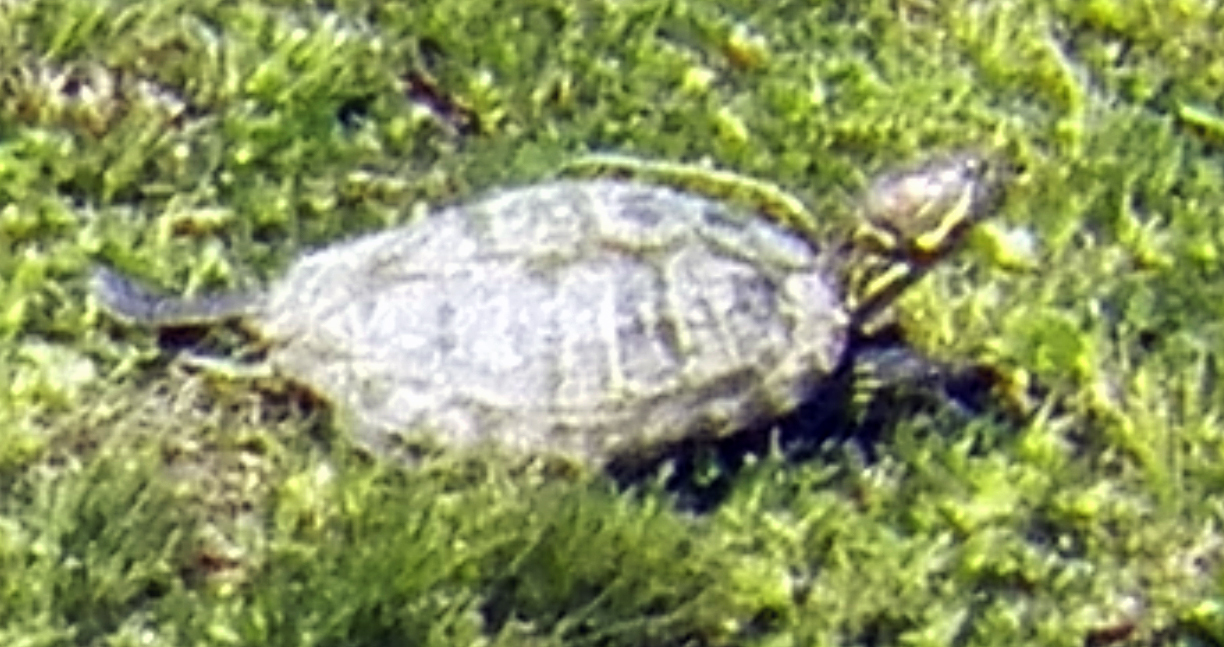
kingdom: Animalia
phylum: Chordata
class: Testudines
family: Emydidae
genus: Trachemys
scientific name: Trachemys scripta
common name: Slider
